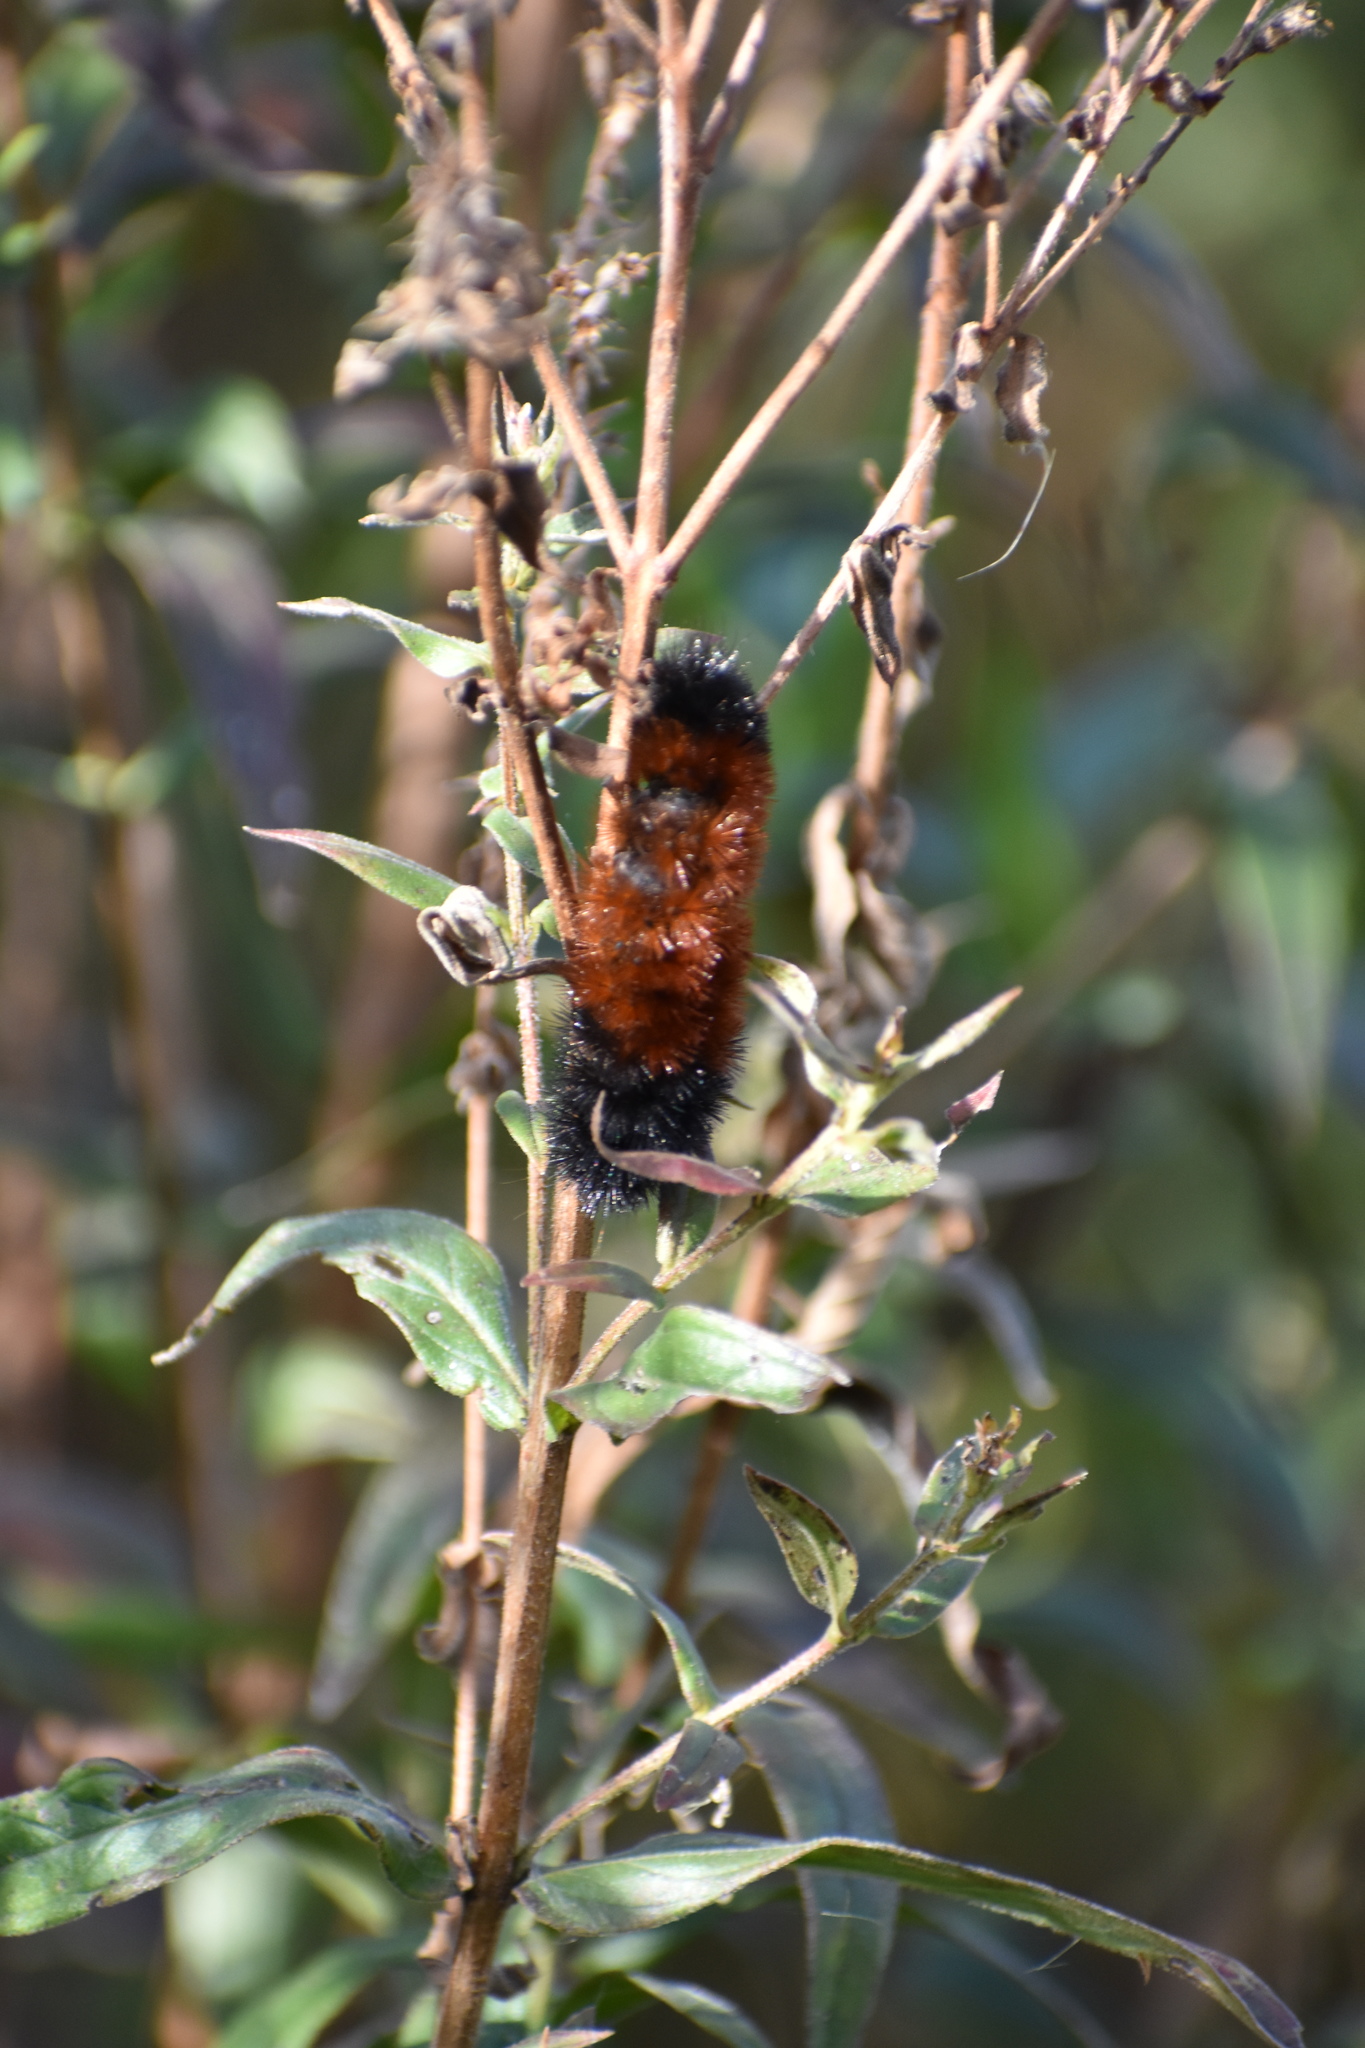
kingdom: Animalia
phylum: Arthropoda
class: Insecta
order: Lepidoptera
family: Erebidae
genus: Pyrrharctia
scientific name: Pyrrharctia isabella
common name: Isabella tiger moth
